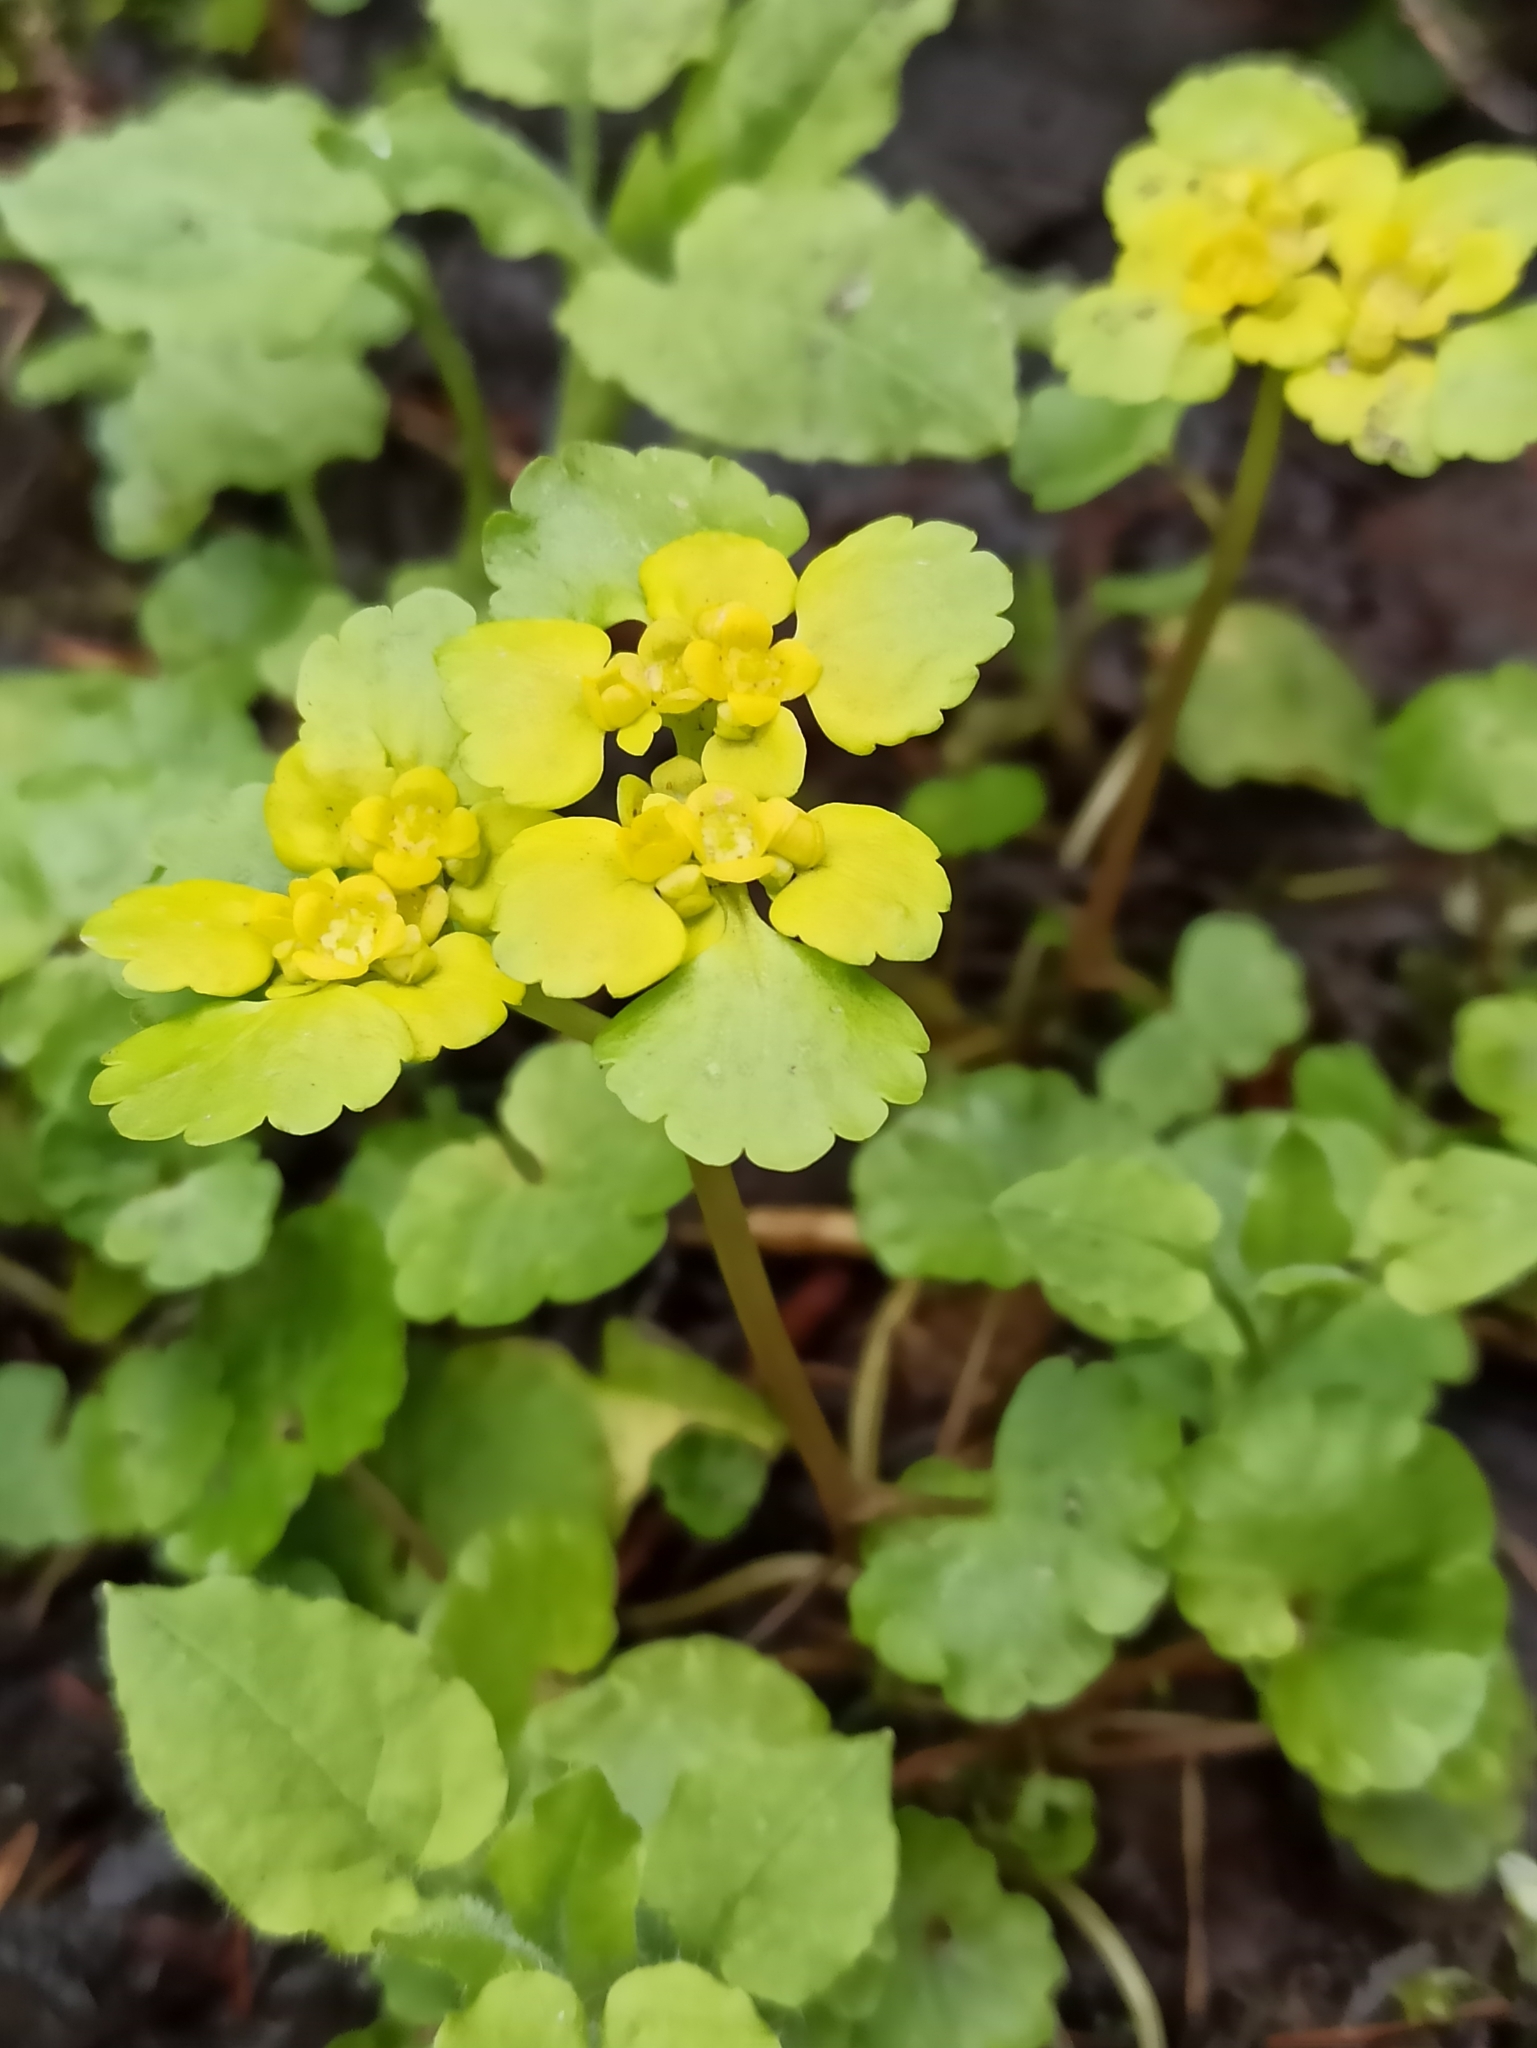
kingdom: Plantae
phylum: Tracheophyta
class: Magnoliopsida
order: Saxifragales
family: Saxifragaceae
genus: Chrysosplenium
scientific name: Chrysosplenium alternifolium
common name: Alternate-leaved golden-saxifrage
